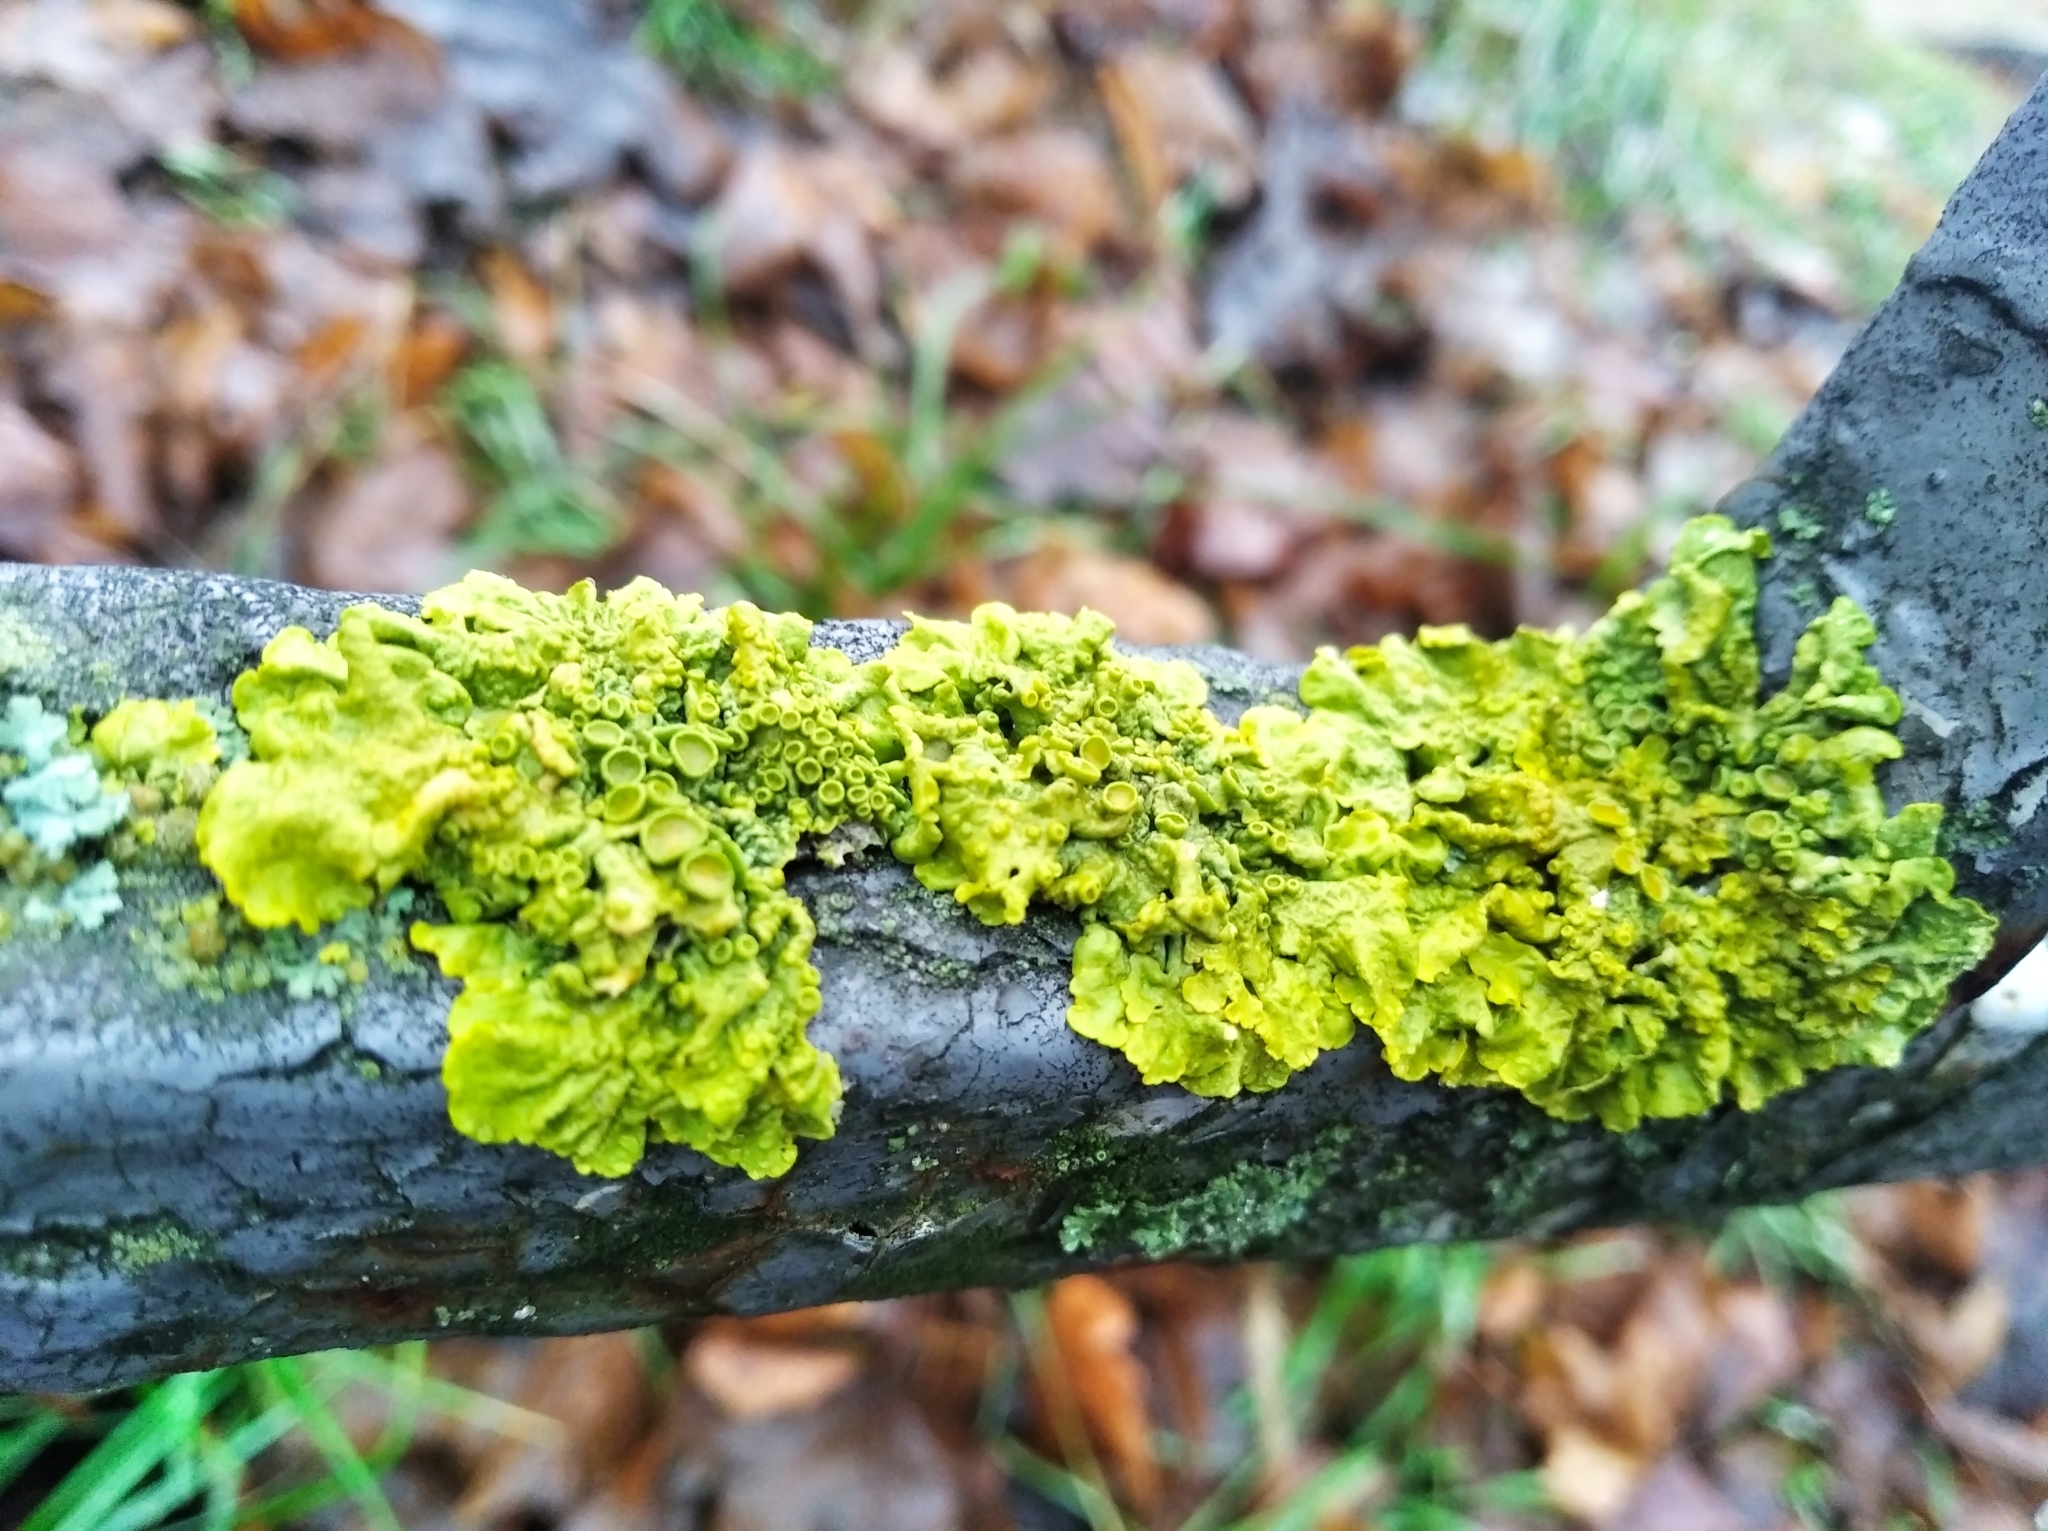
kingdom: Fungi
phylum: Ascomycota
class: Lecanoromycetes
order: Teloschistales
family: Teloschistaceae
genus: Xanthoria
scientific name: Xanthoria parietina
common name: Common orange lichen
